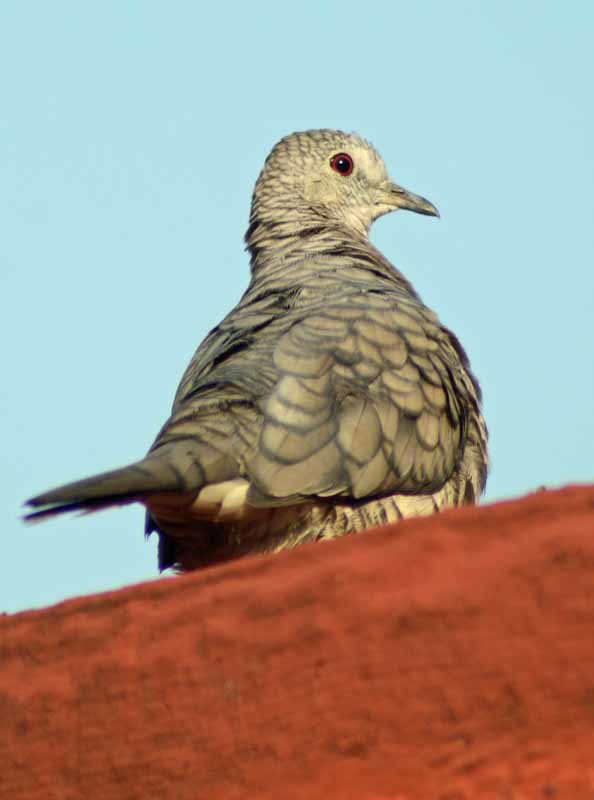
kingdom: Animalia
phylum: Chordata
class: Aves
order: Columbiformes
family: Columbidae
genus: Columbina
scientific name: Columbina inca
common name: Inca dove
